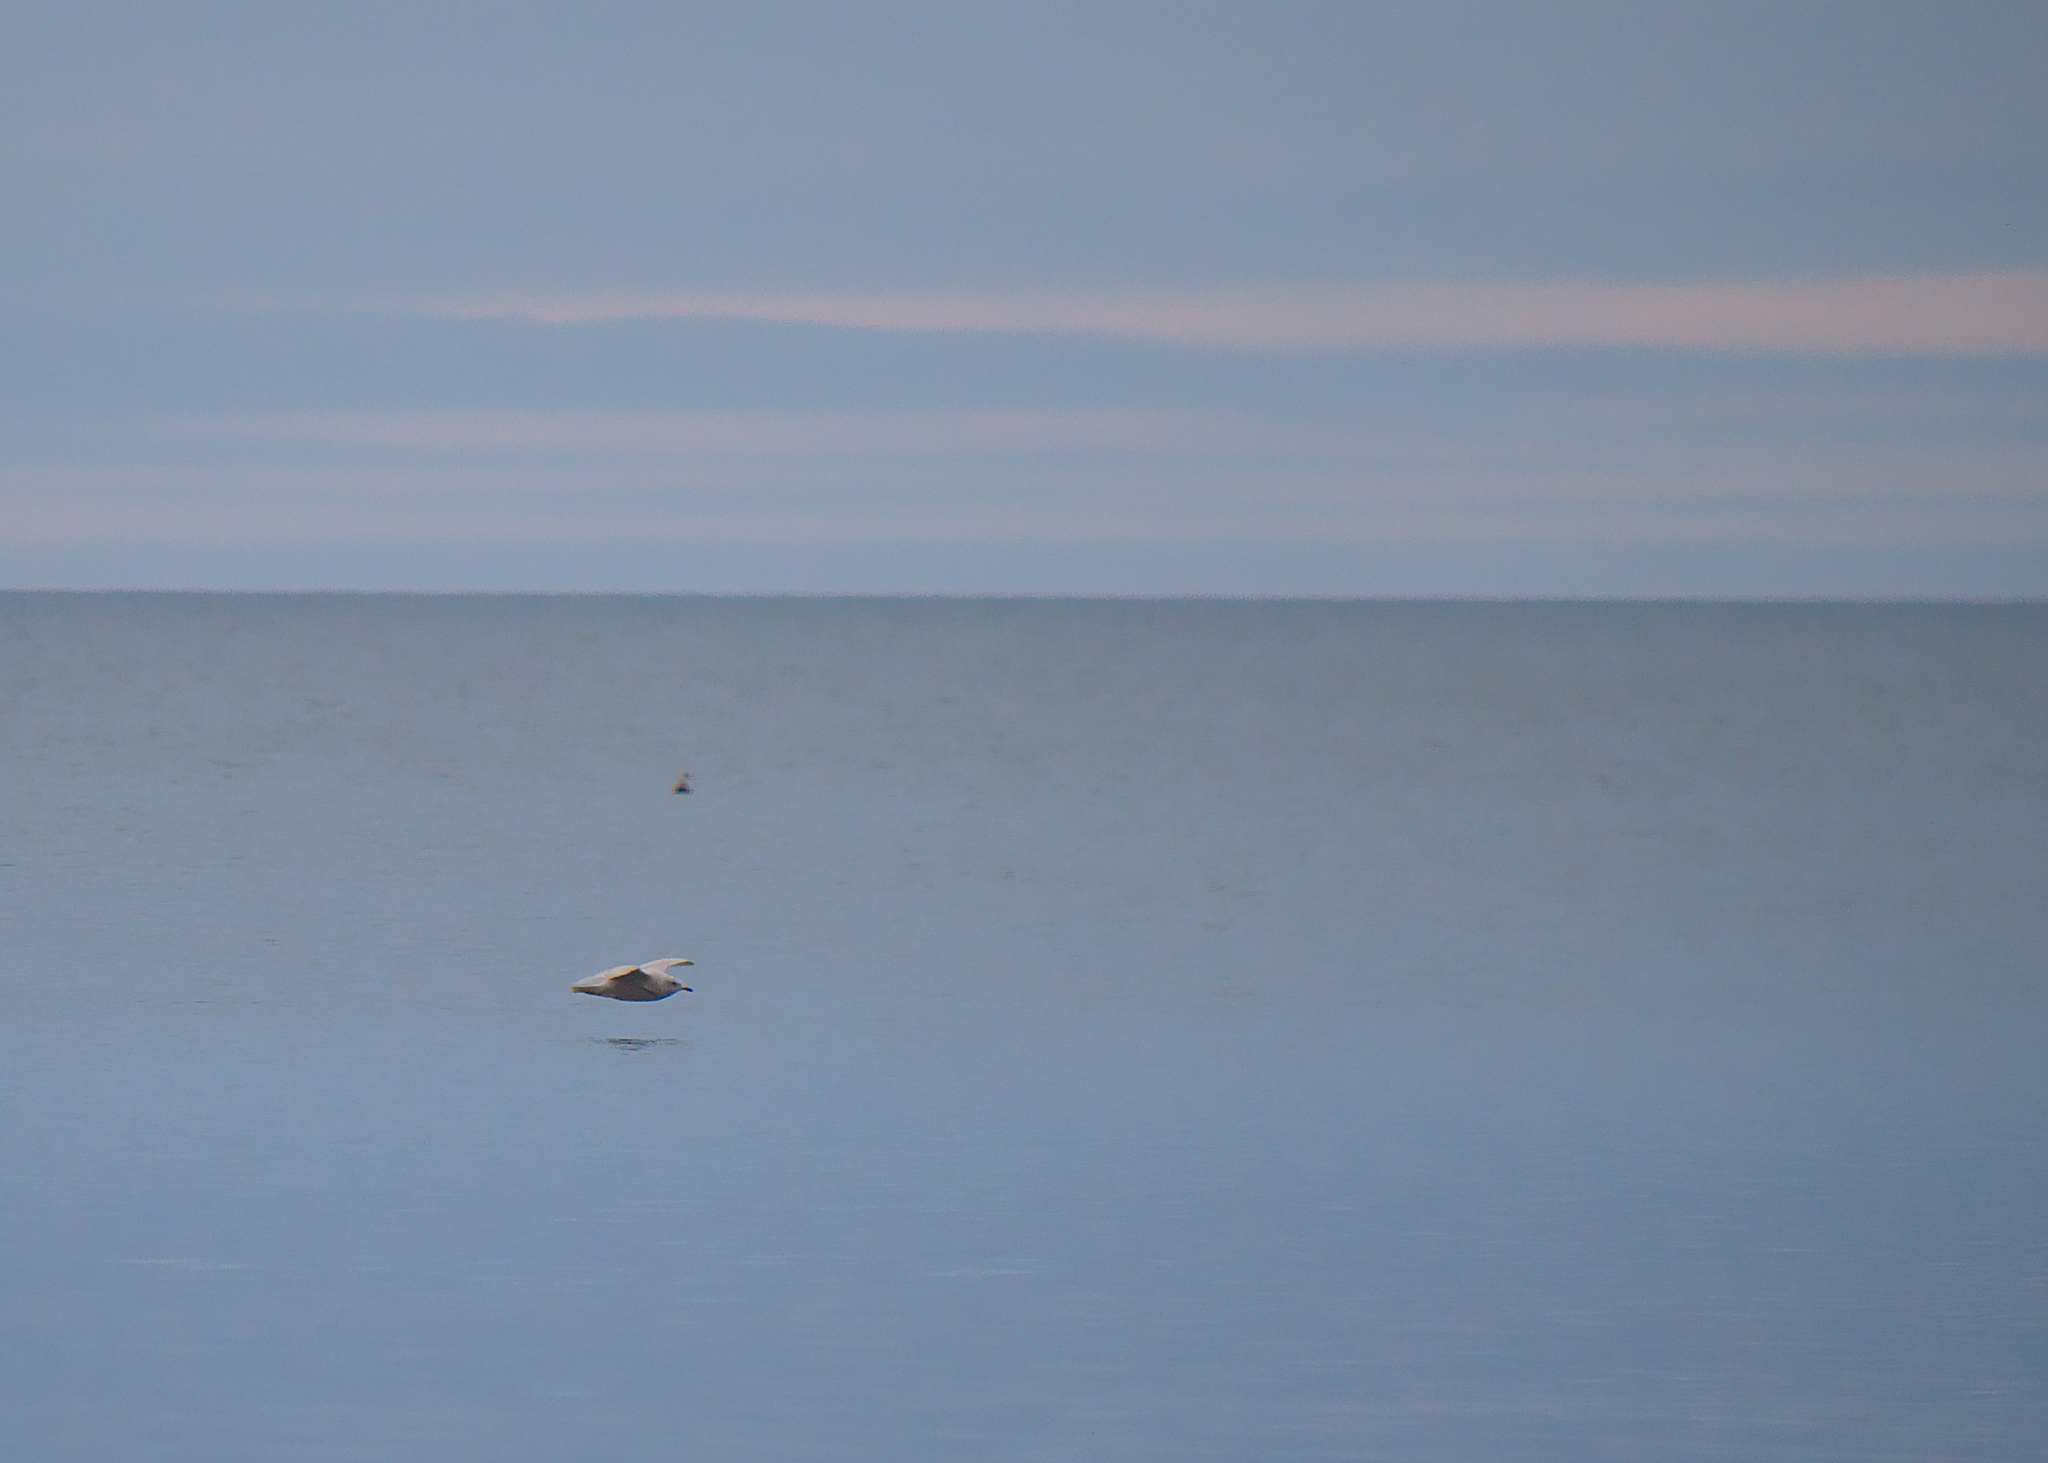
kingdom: Animalia
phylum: Chordata
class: Aves
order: Charadriiformes
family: Laridae
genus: Larus
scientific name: Larus hyperboreus
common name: Glaucous gull
